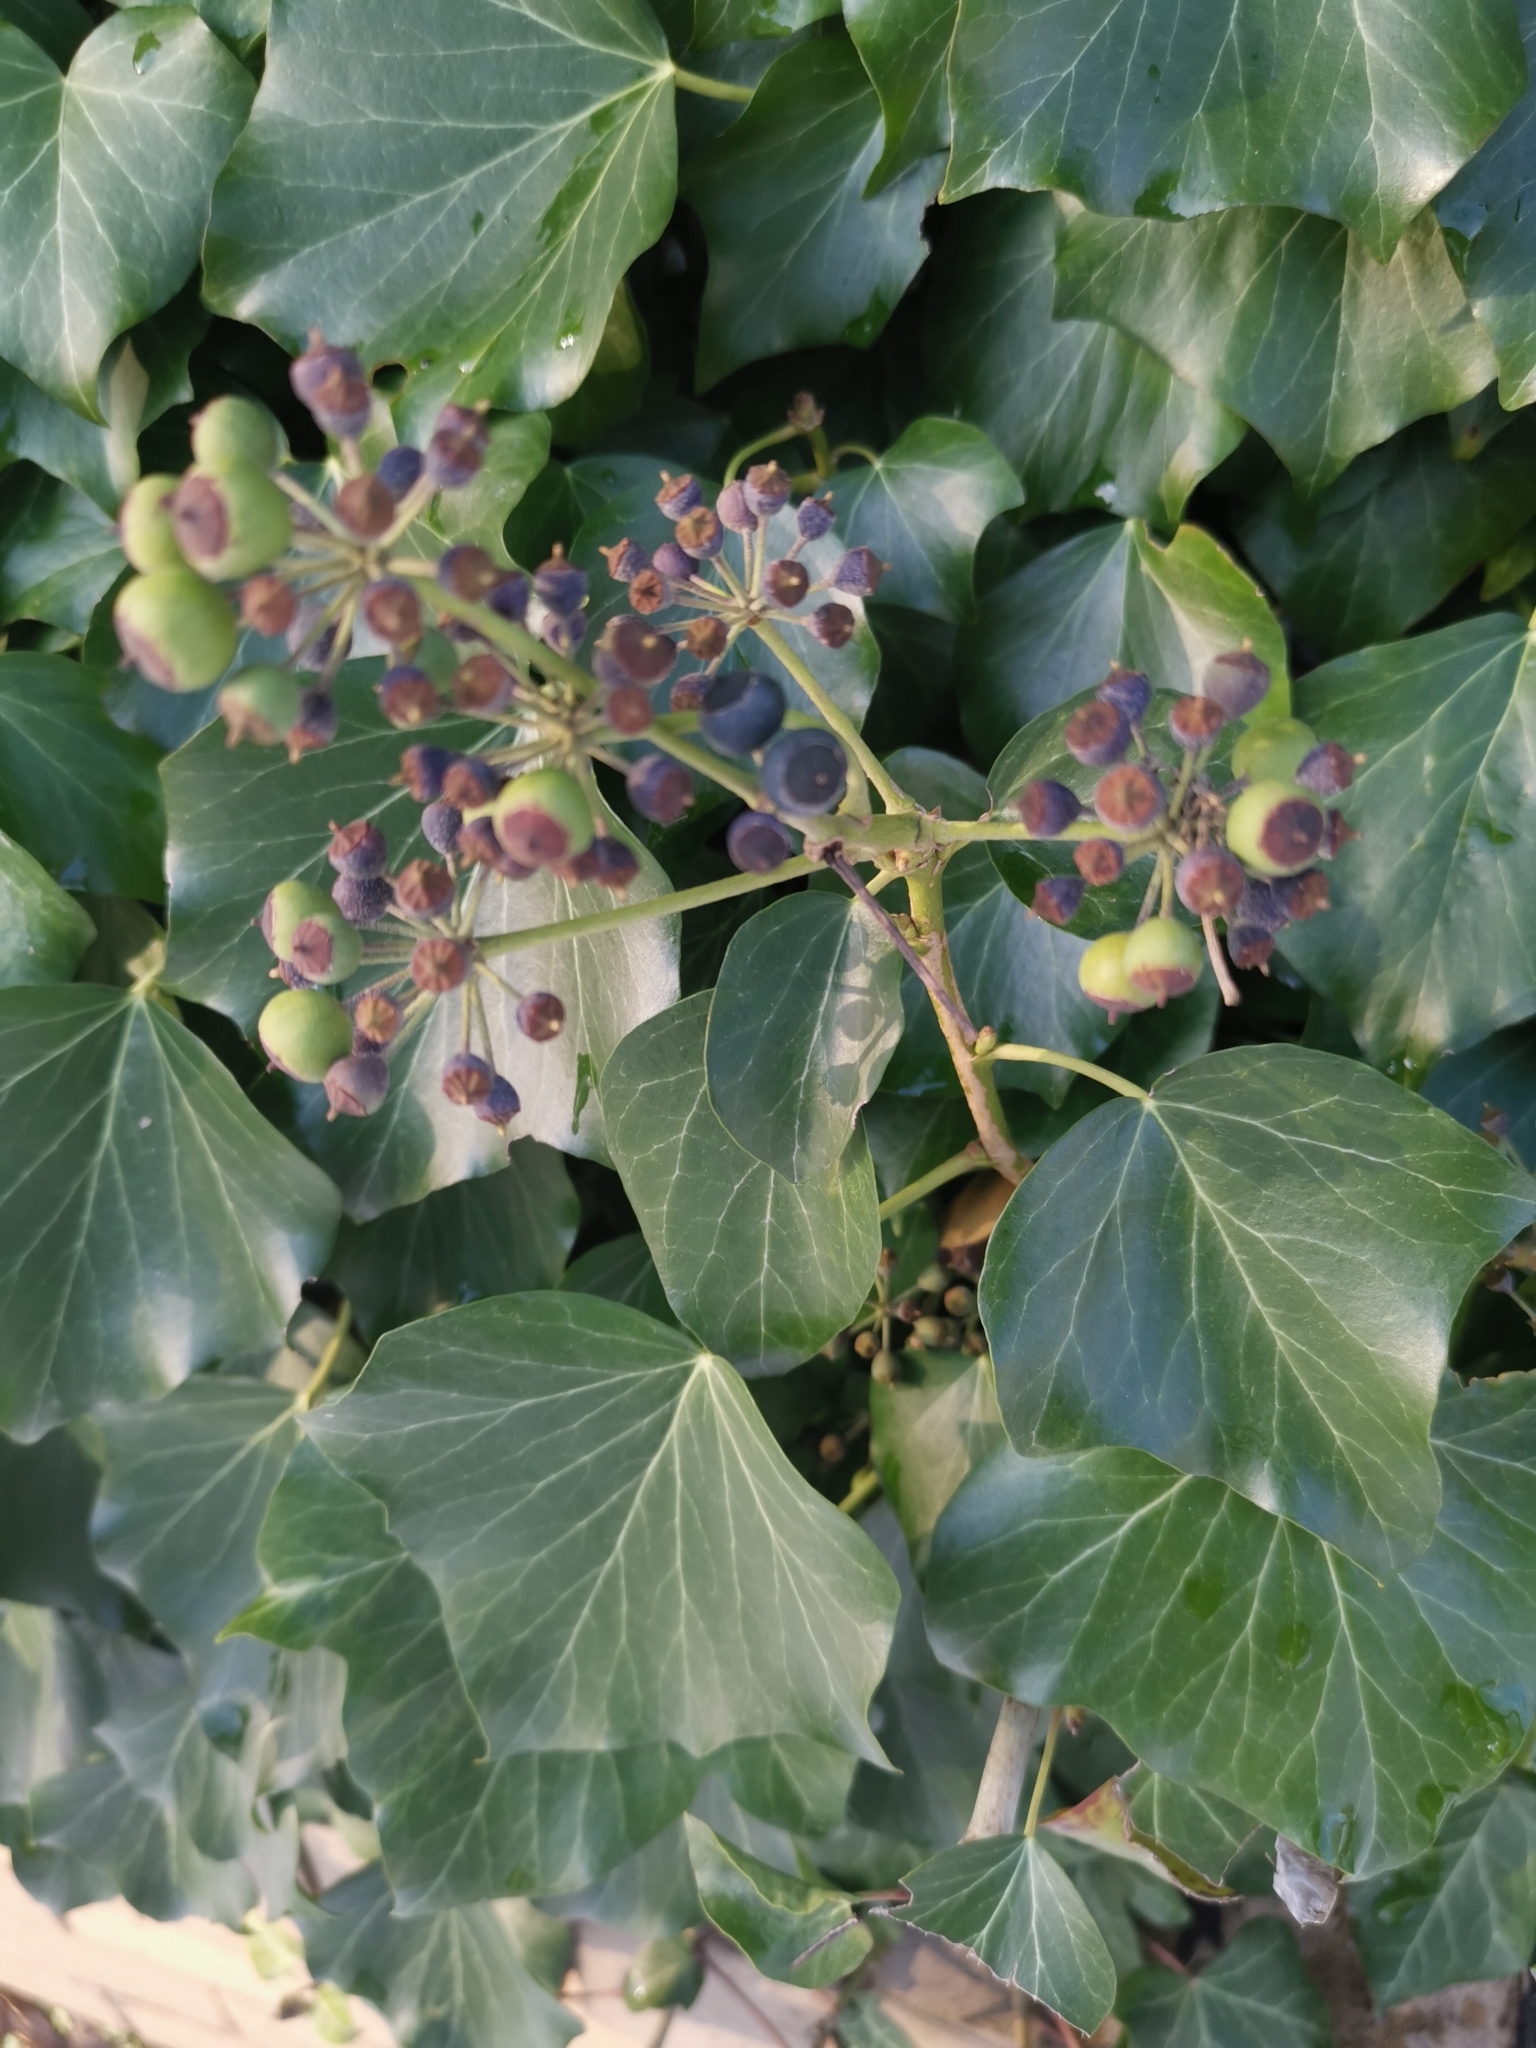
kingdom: Plantae
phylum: Tracheophyta
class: Magnoliopsida
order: Apiales
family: Araliaceae
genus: Hedera
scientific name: Hedera helix
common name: Ivy
